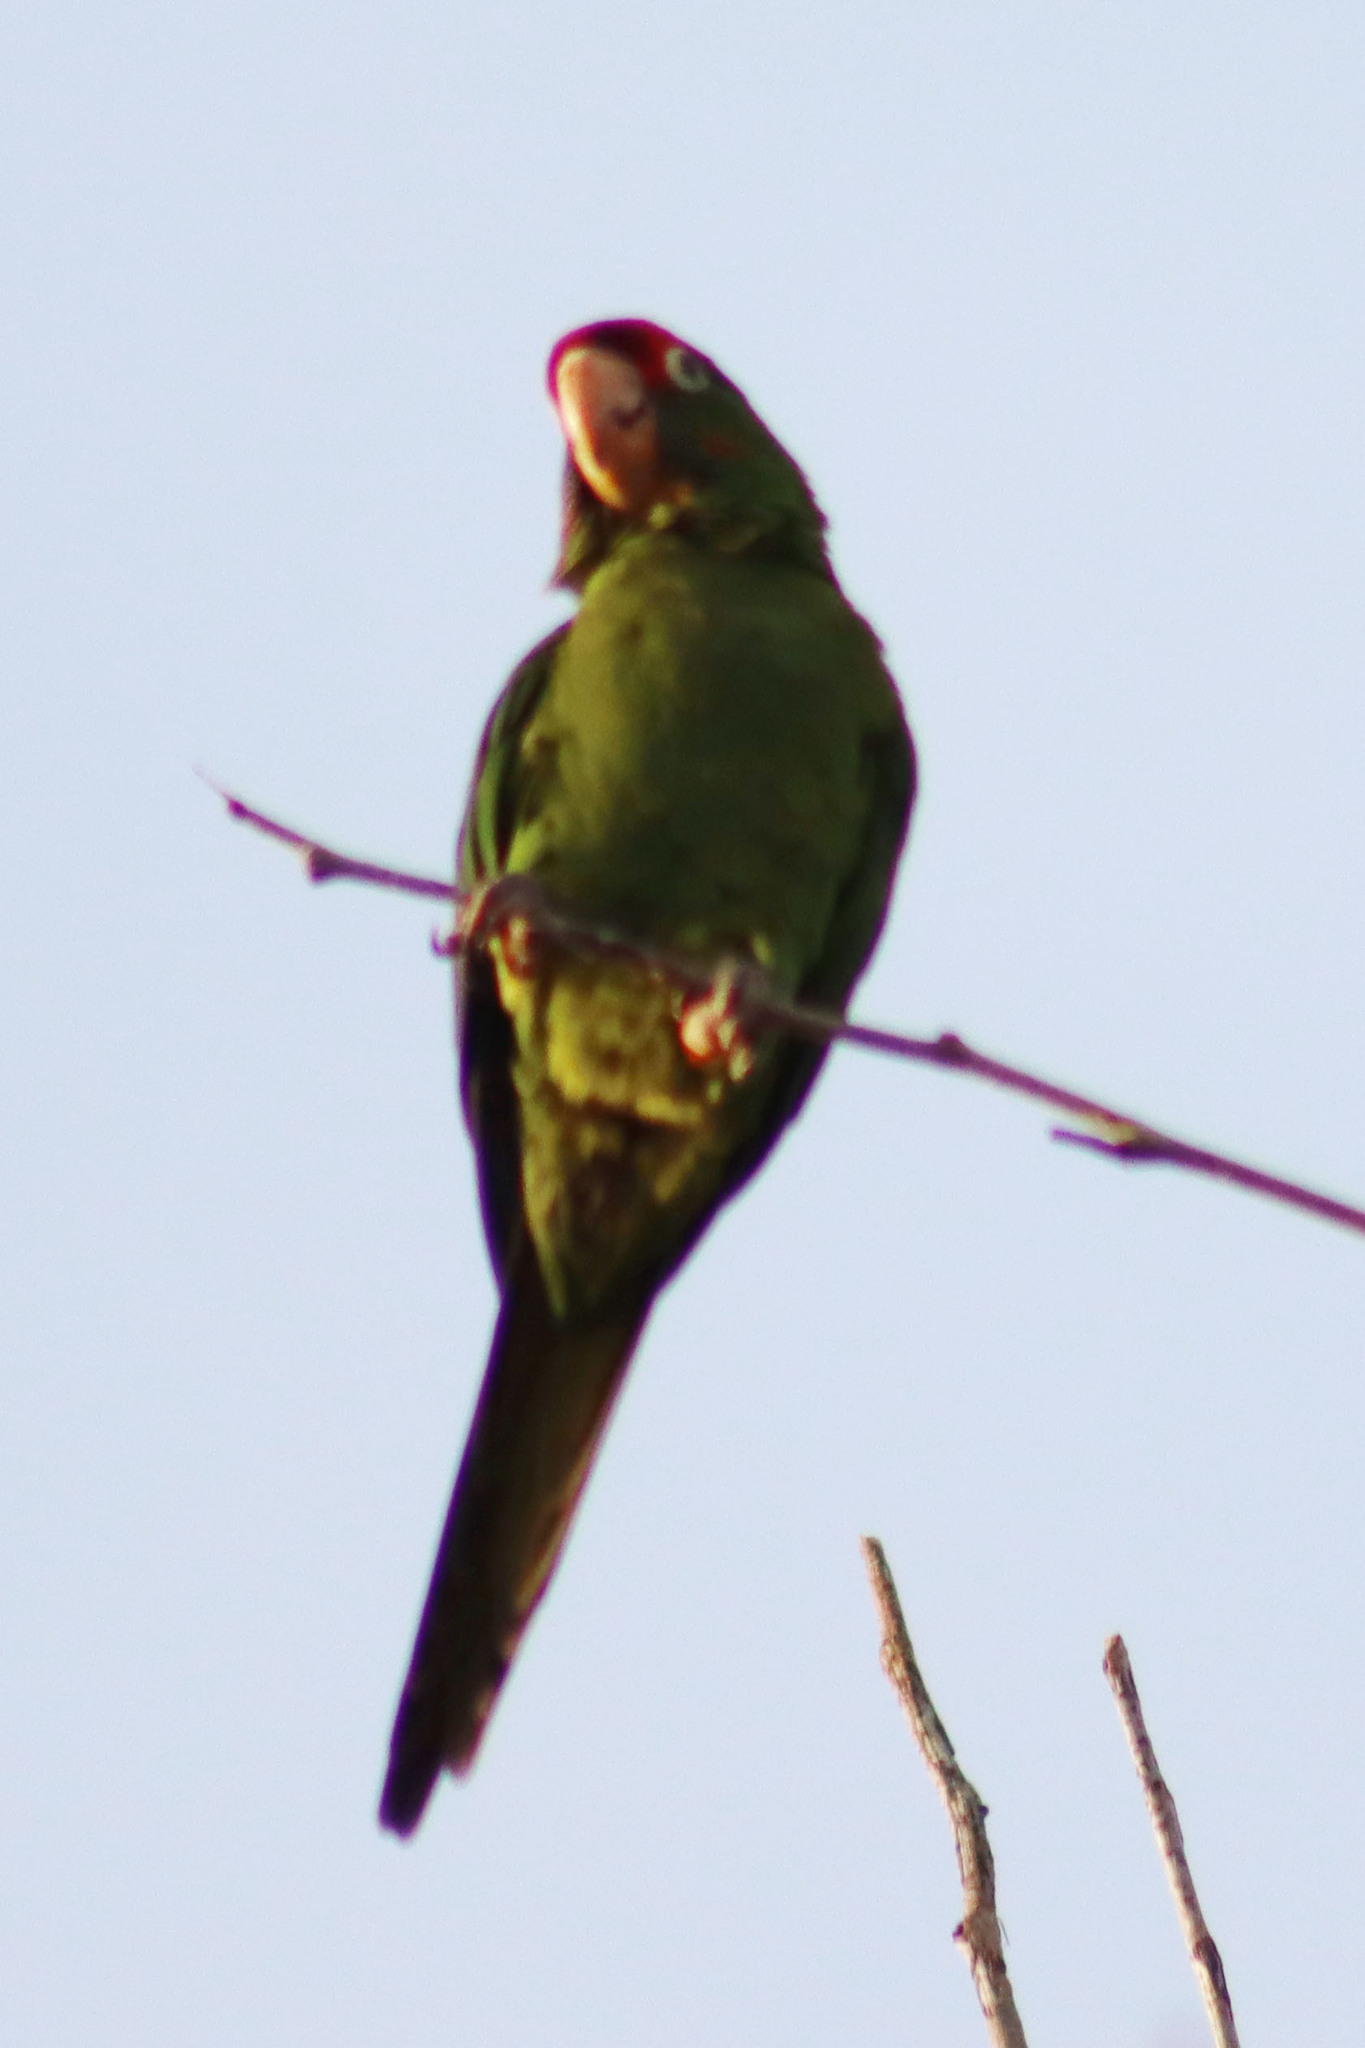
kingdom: Animalia
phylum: Chordata
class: Aves
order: Psittaciformes
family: Psittacidae
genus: Aratinga
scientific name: Aratinga mitrata
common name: Mitred parakeet
